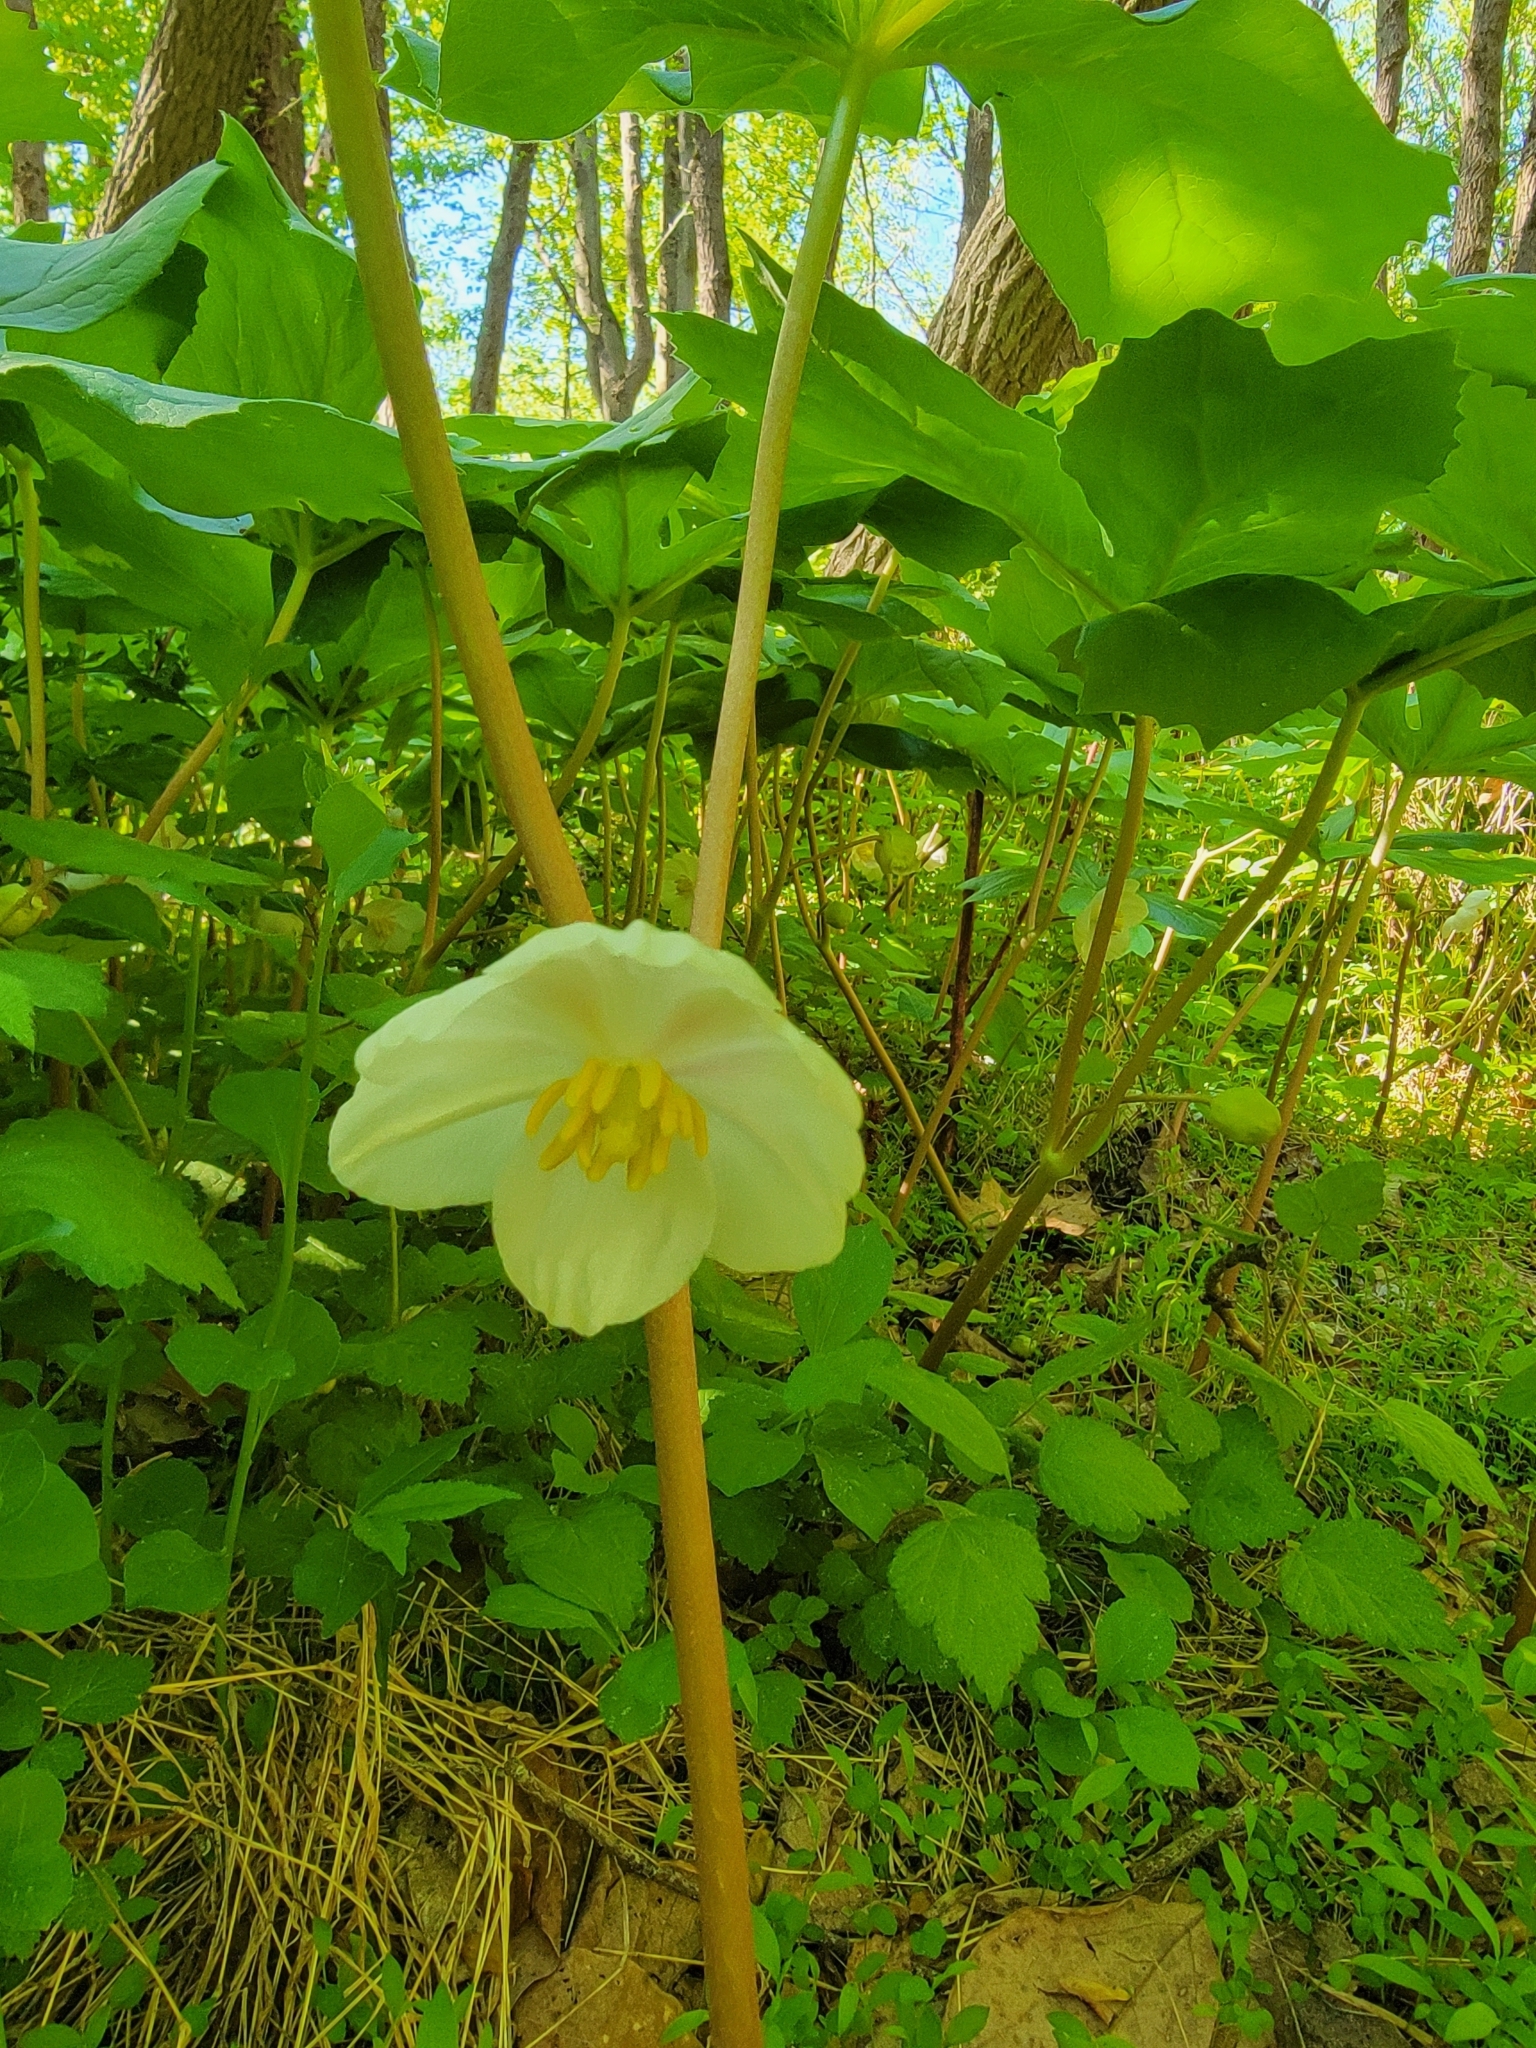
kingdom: Plantae
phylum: Tracheophyta
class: Magnoliopsida
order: Ranunculales
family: Berberidaceae
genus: Podophyllum
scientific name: Podophyllum peltatum
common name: Wild mandrake
